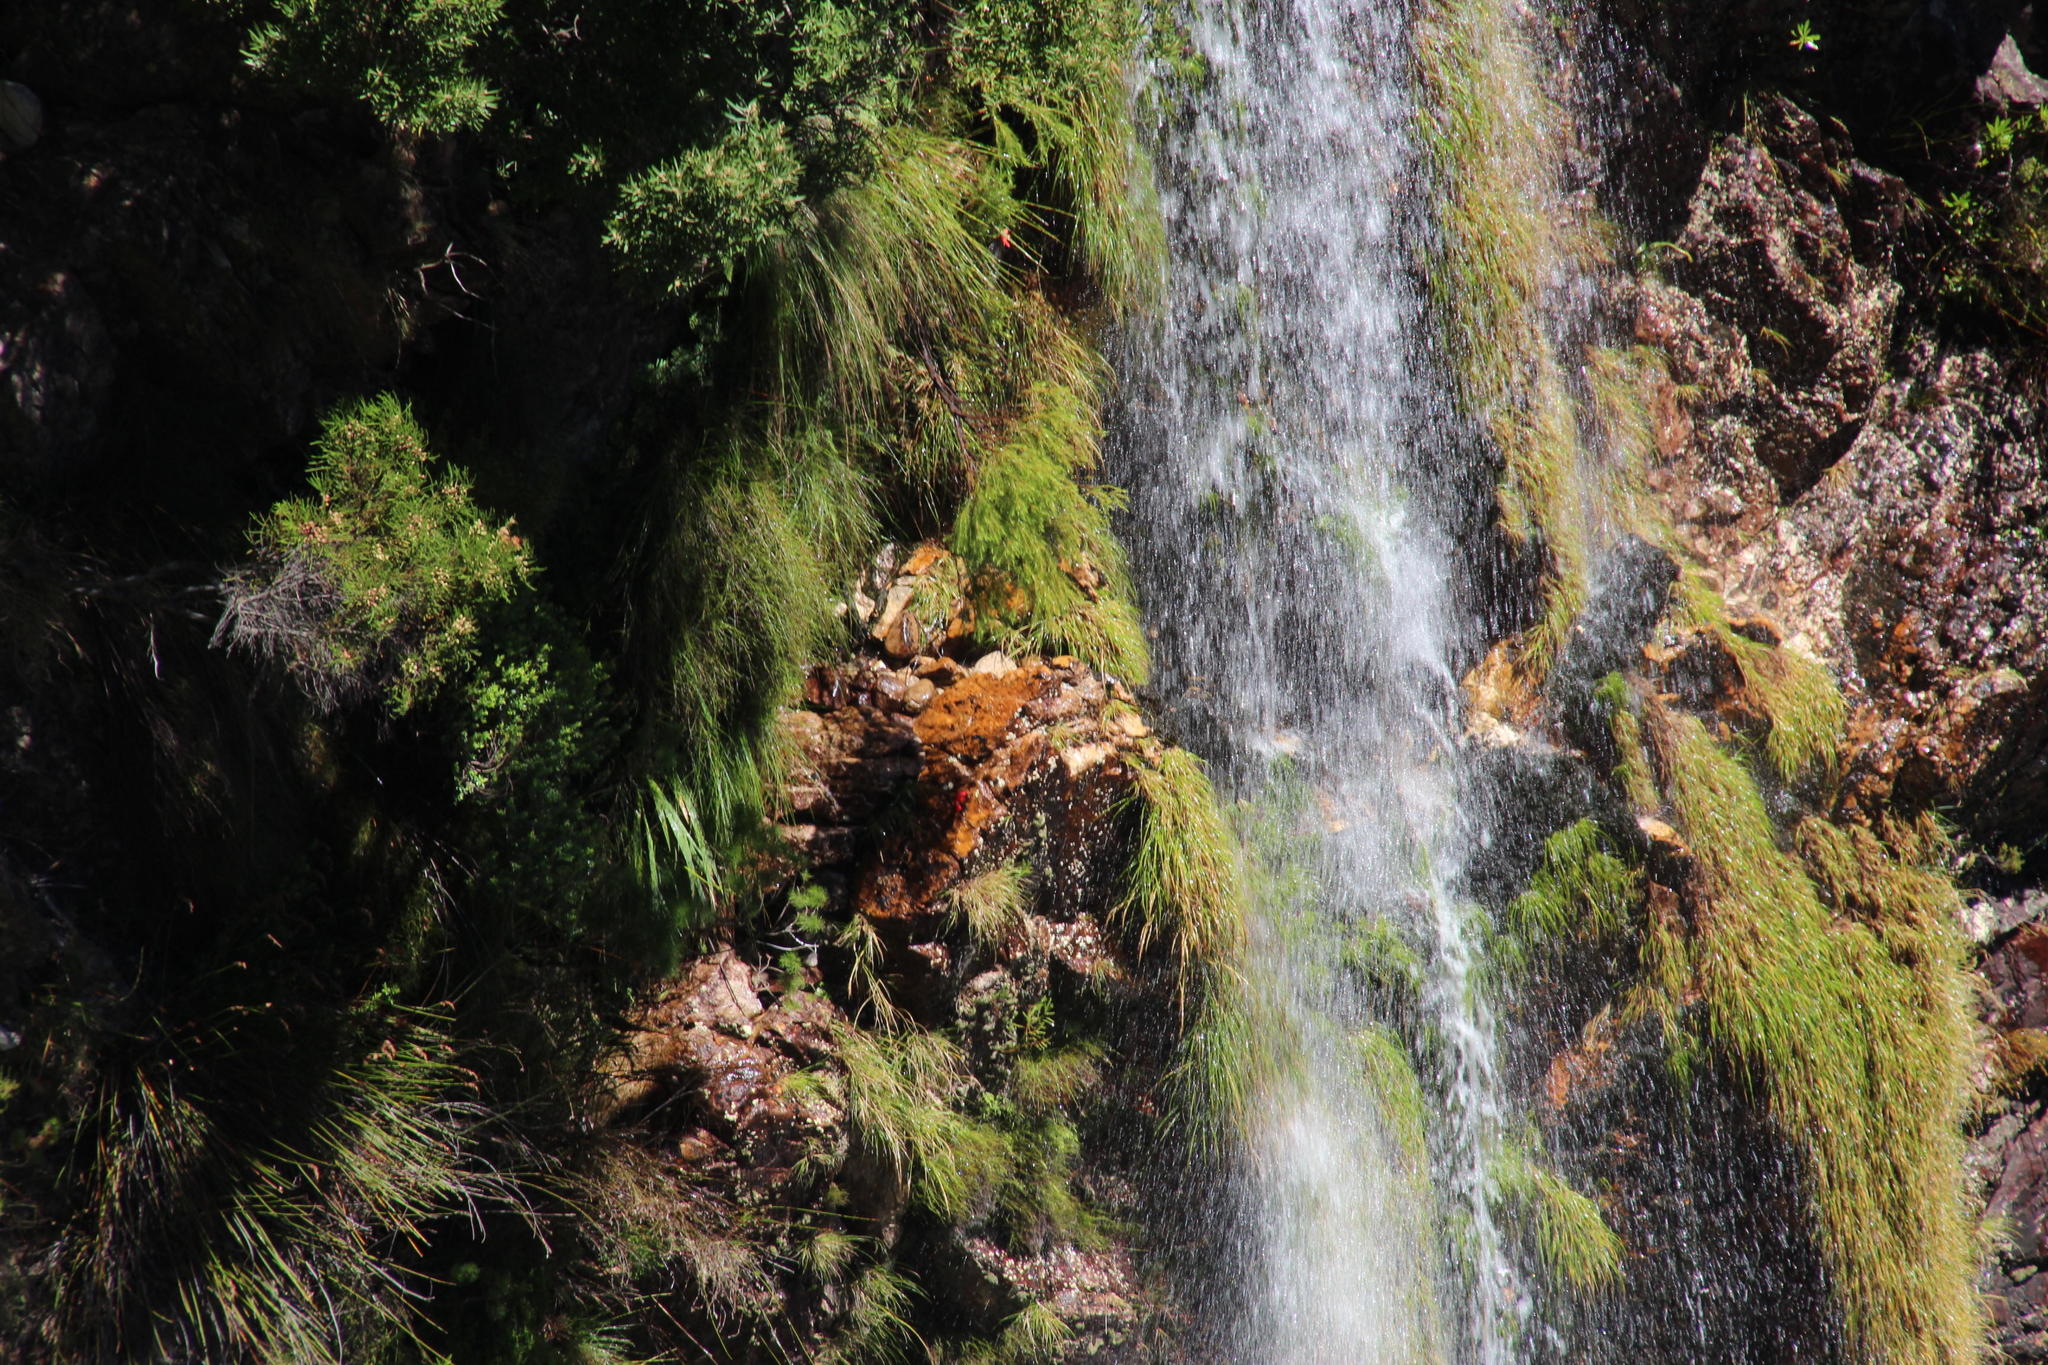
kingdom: Plantae
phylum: Tracheophyta
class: Liliopsida
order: Poales
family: Poaceae
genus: Pentameris
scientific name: Pentameris capensis
